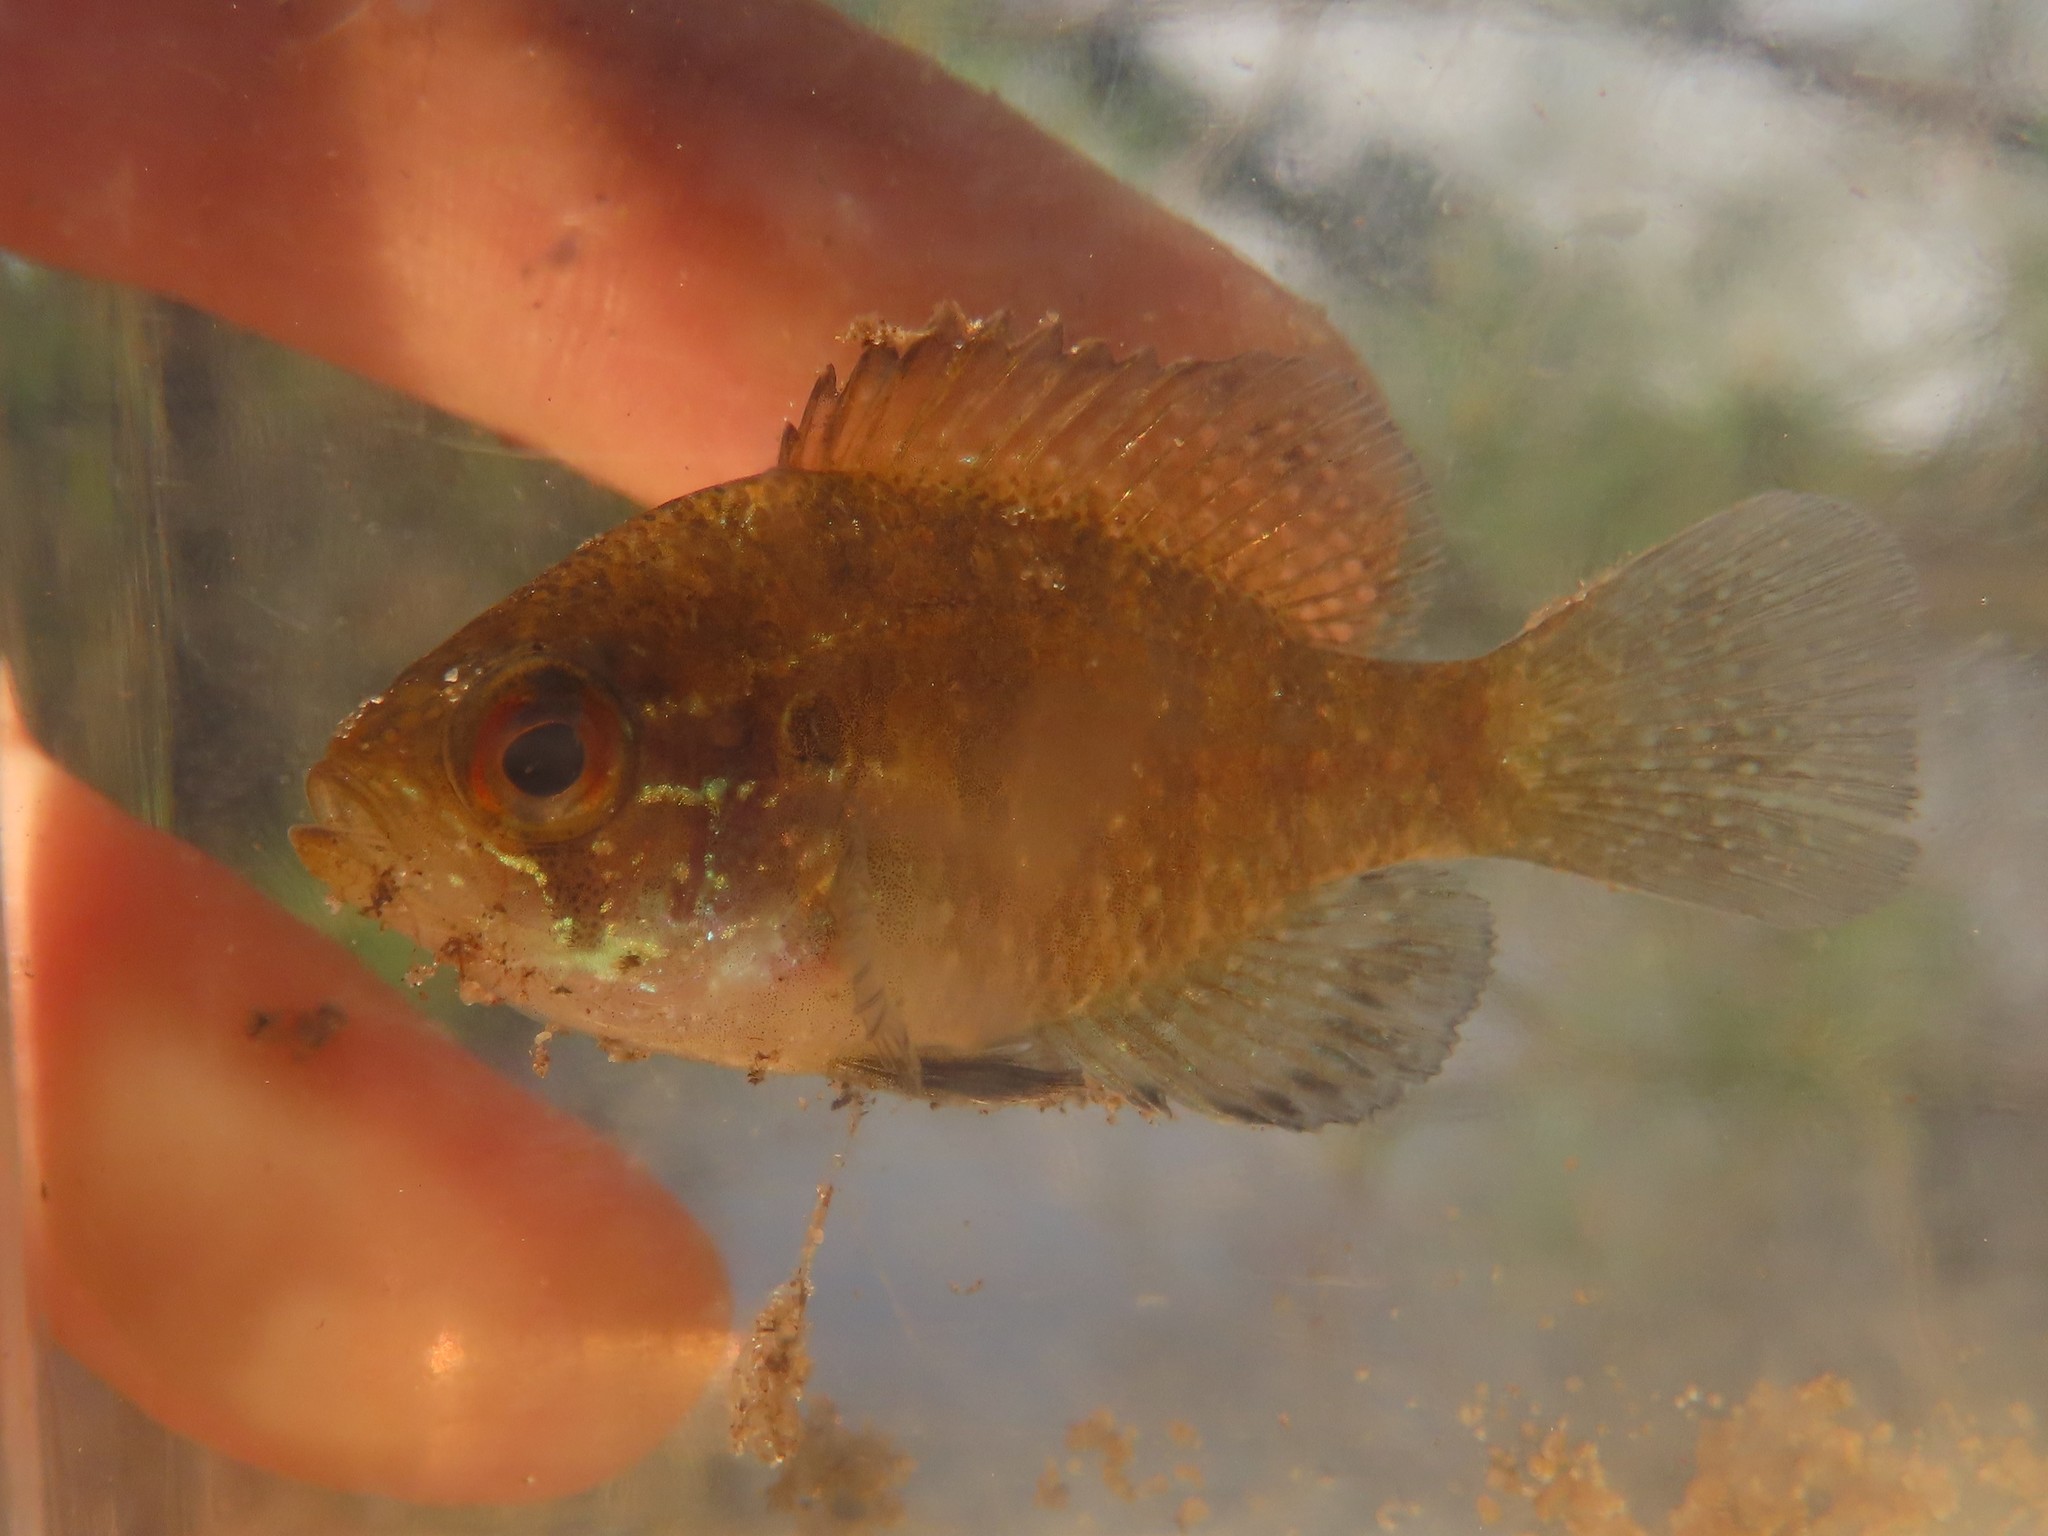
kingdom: Animalia
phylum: Chordata
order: Perciformes
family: Centrarchidae
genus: Enneacanthus
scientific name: Enneacanthus obesus
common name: Banded sunfish
